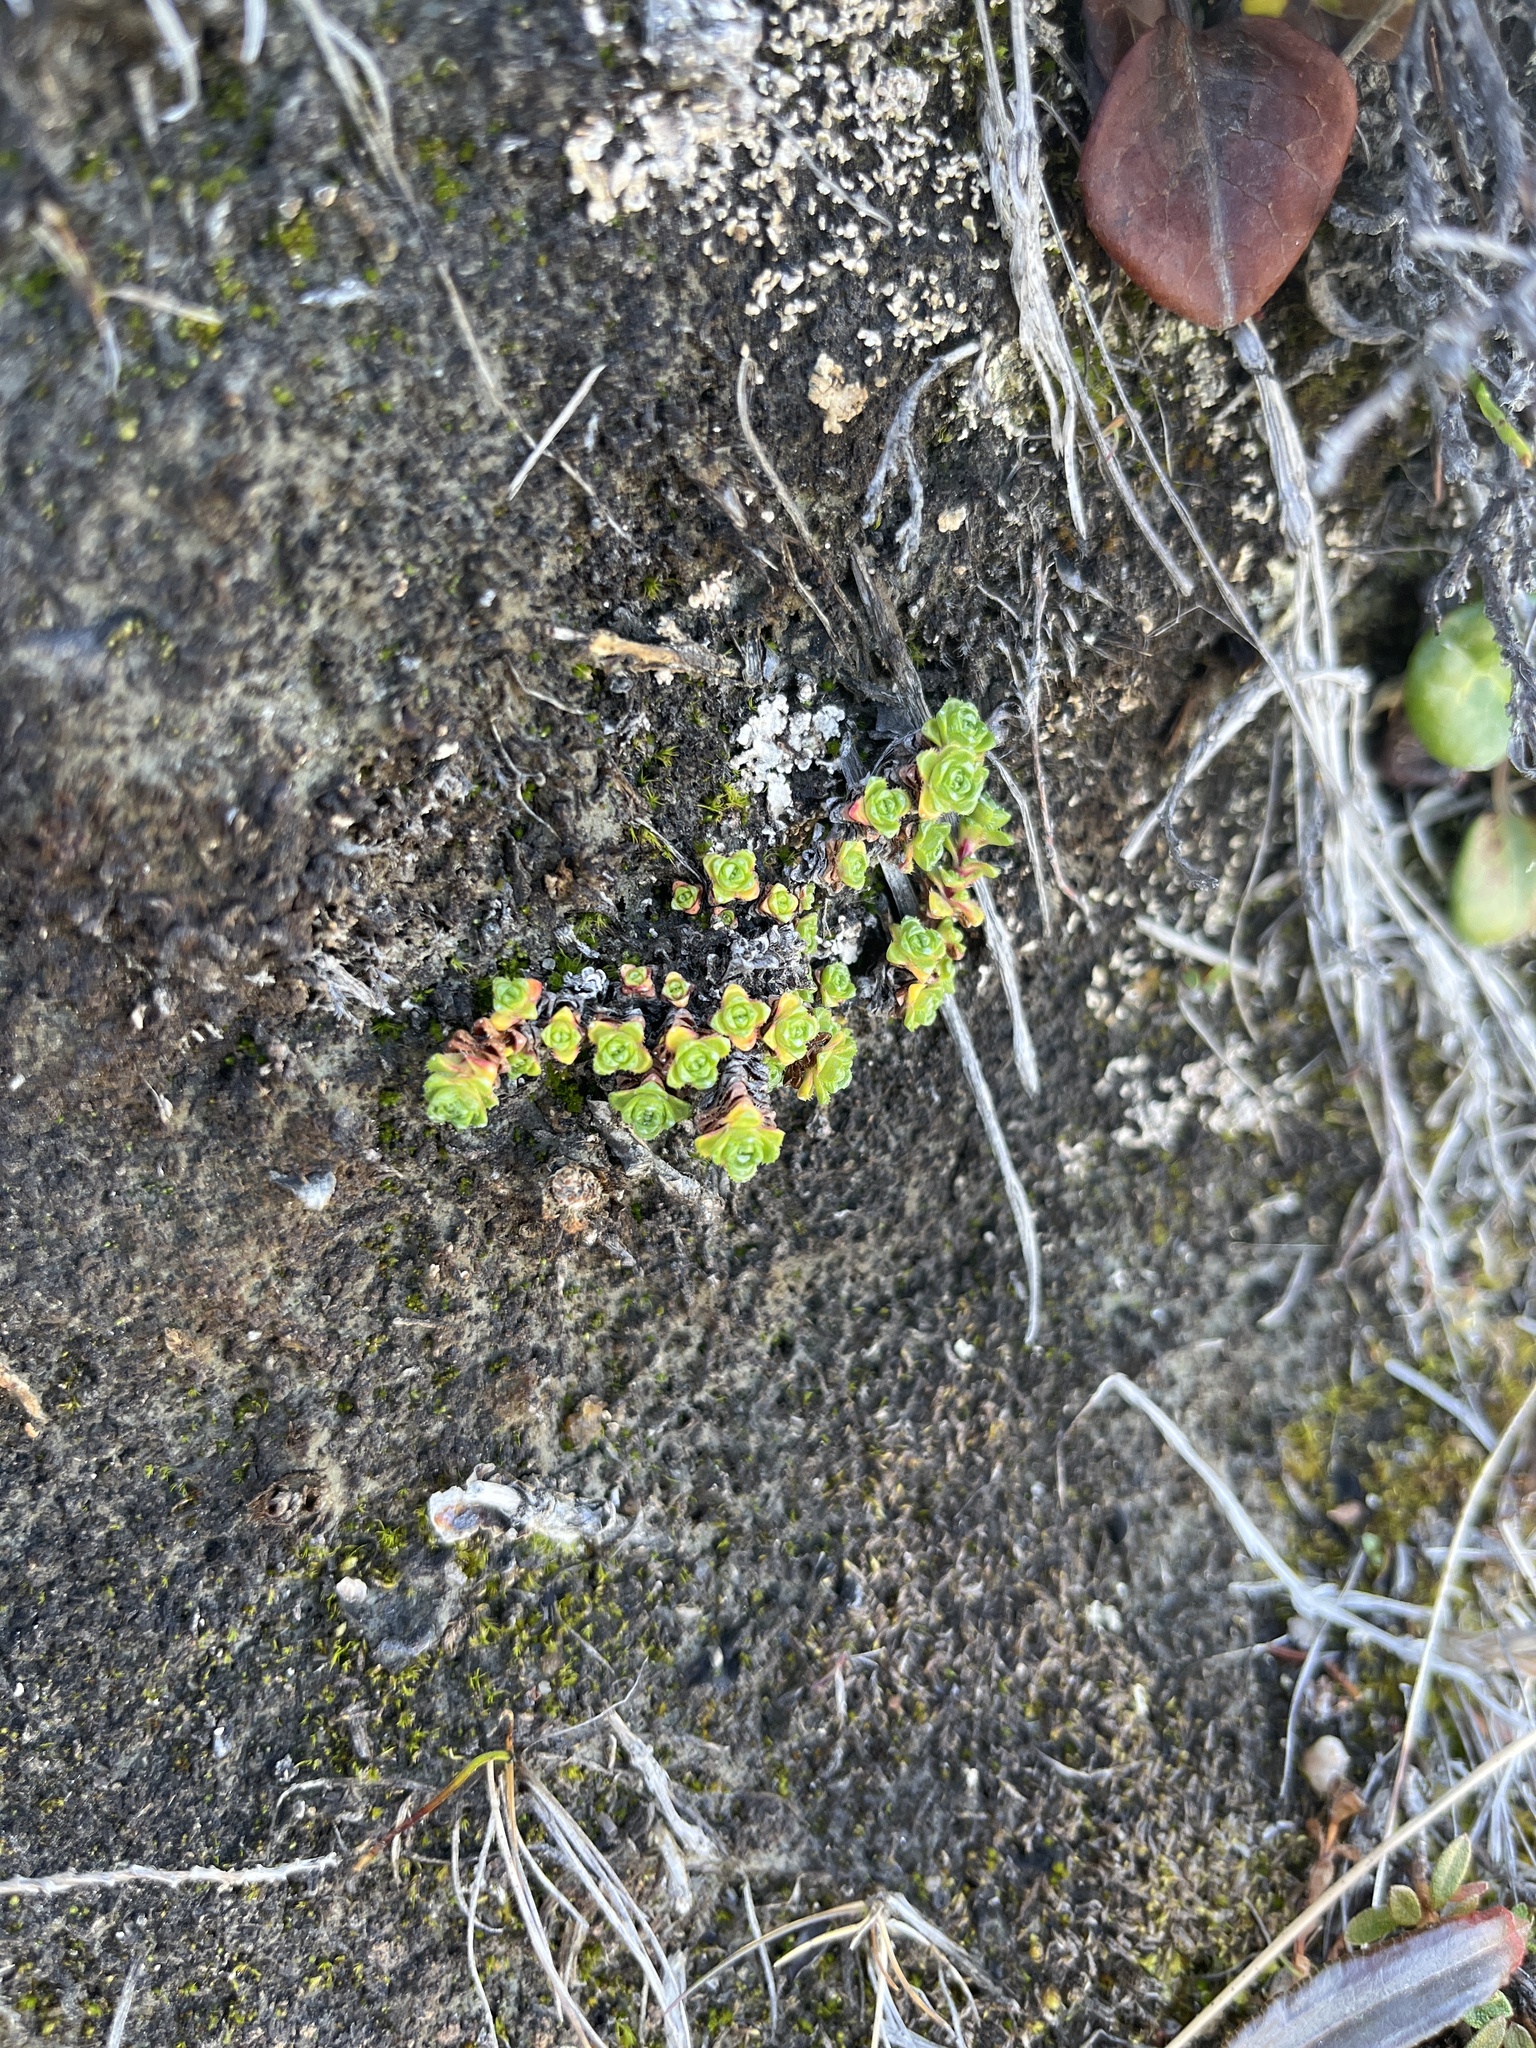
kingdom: Plantae
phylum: Tracheophyta
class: Magnoliopsida
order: Saxifragales
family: Saxifragaceae
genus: Saxifraga
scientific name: Saxifraga oppositifolia
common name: Purple saxifrage
